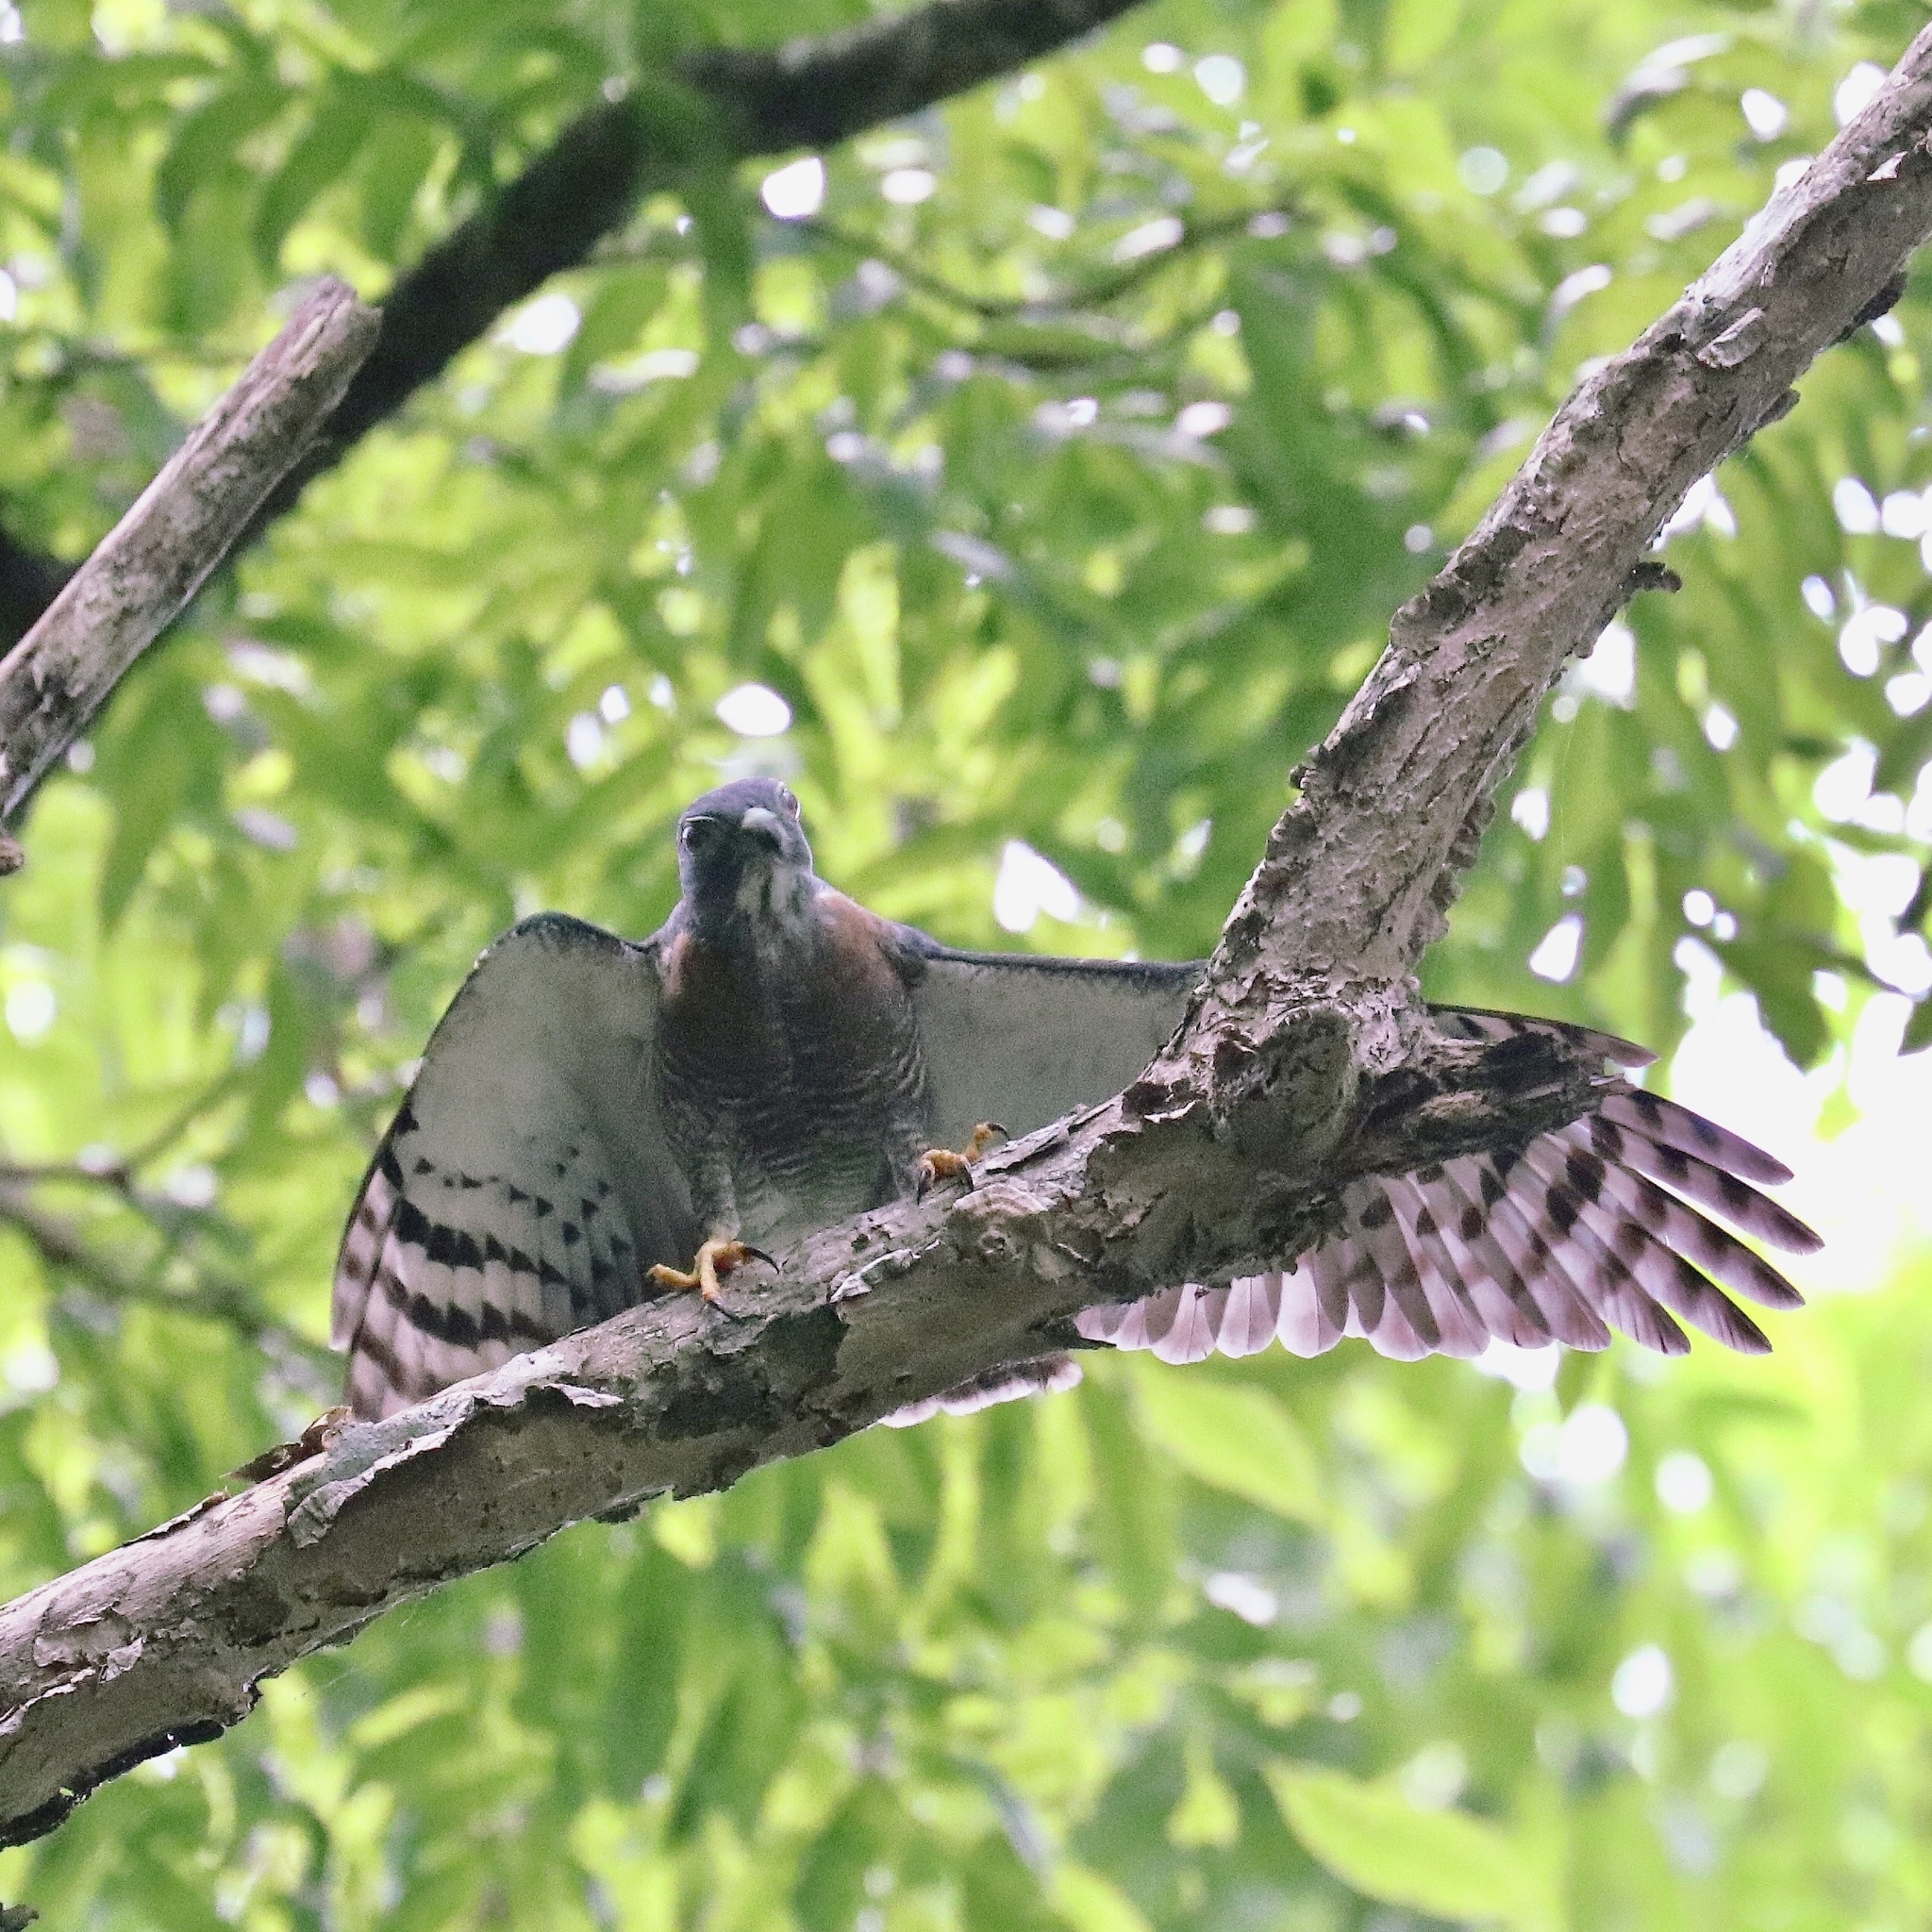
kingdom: Animalia
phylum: Chordata
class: Aves
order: Accipitriformes
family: Accipitridae
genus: Harpagus
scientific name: Harpagus bidentatus
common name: Double-toothed kite
